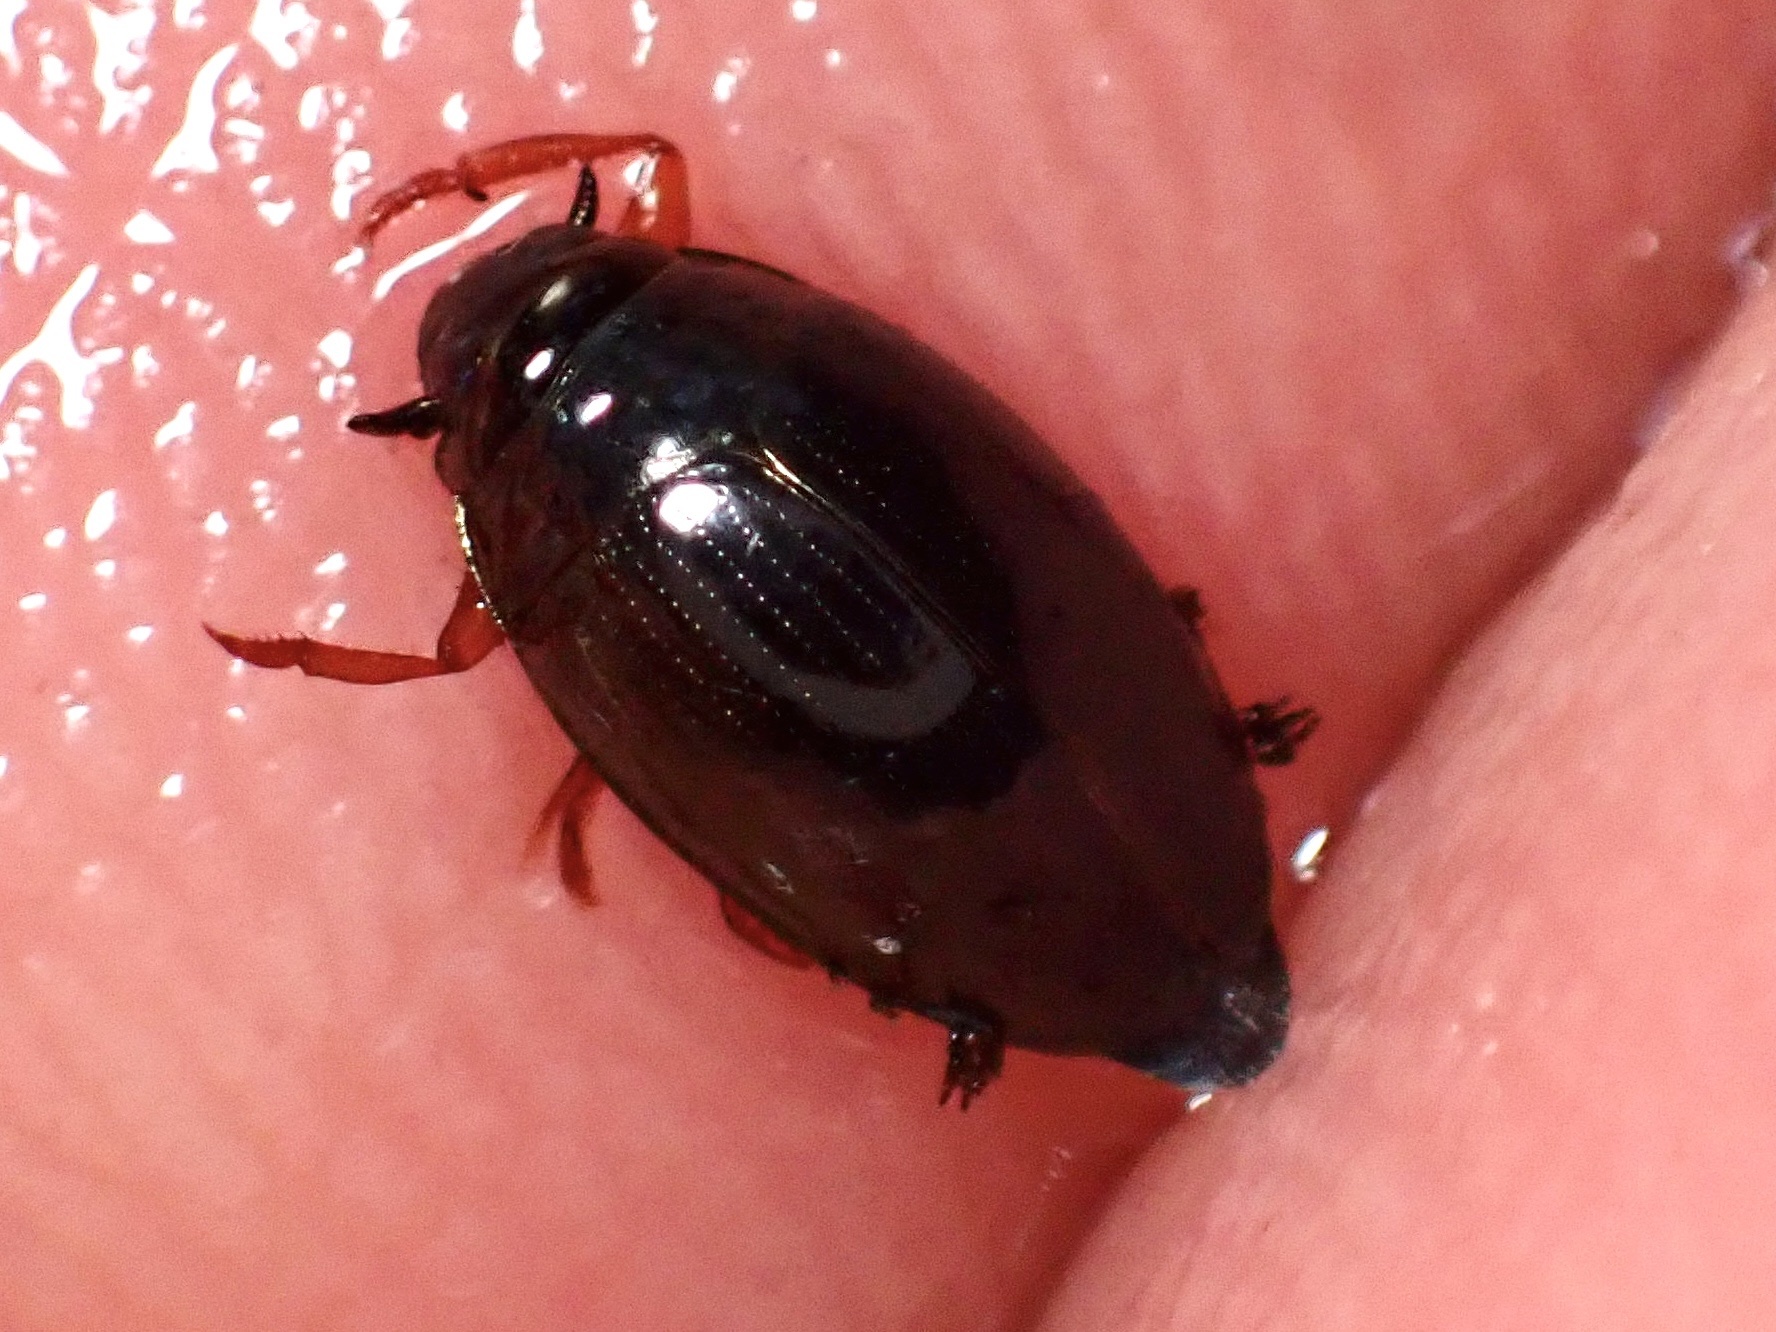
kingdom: Animalia
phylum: Arthropoda
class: Insecta
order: Coleoptera
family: Gyrinidae
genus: Gyrinus
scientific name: Gyrinus
